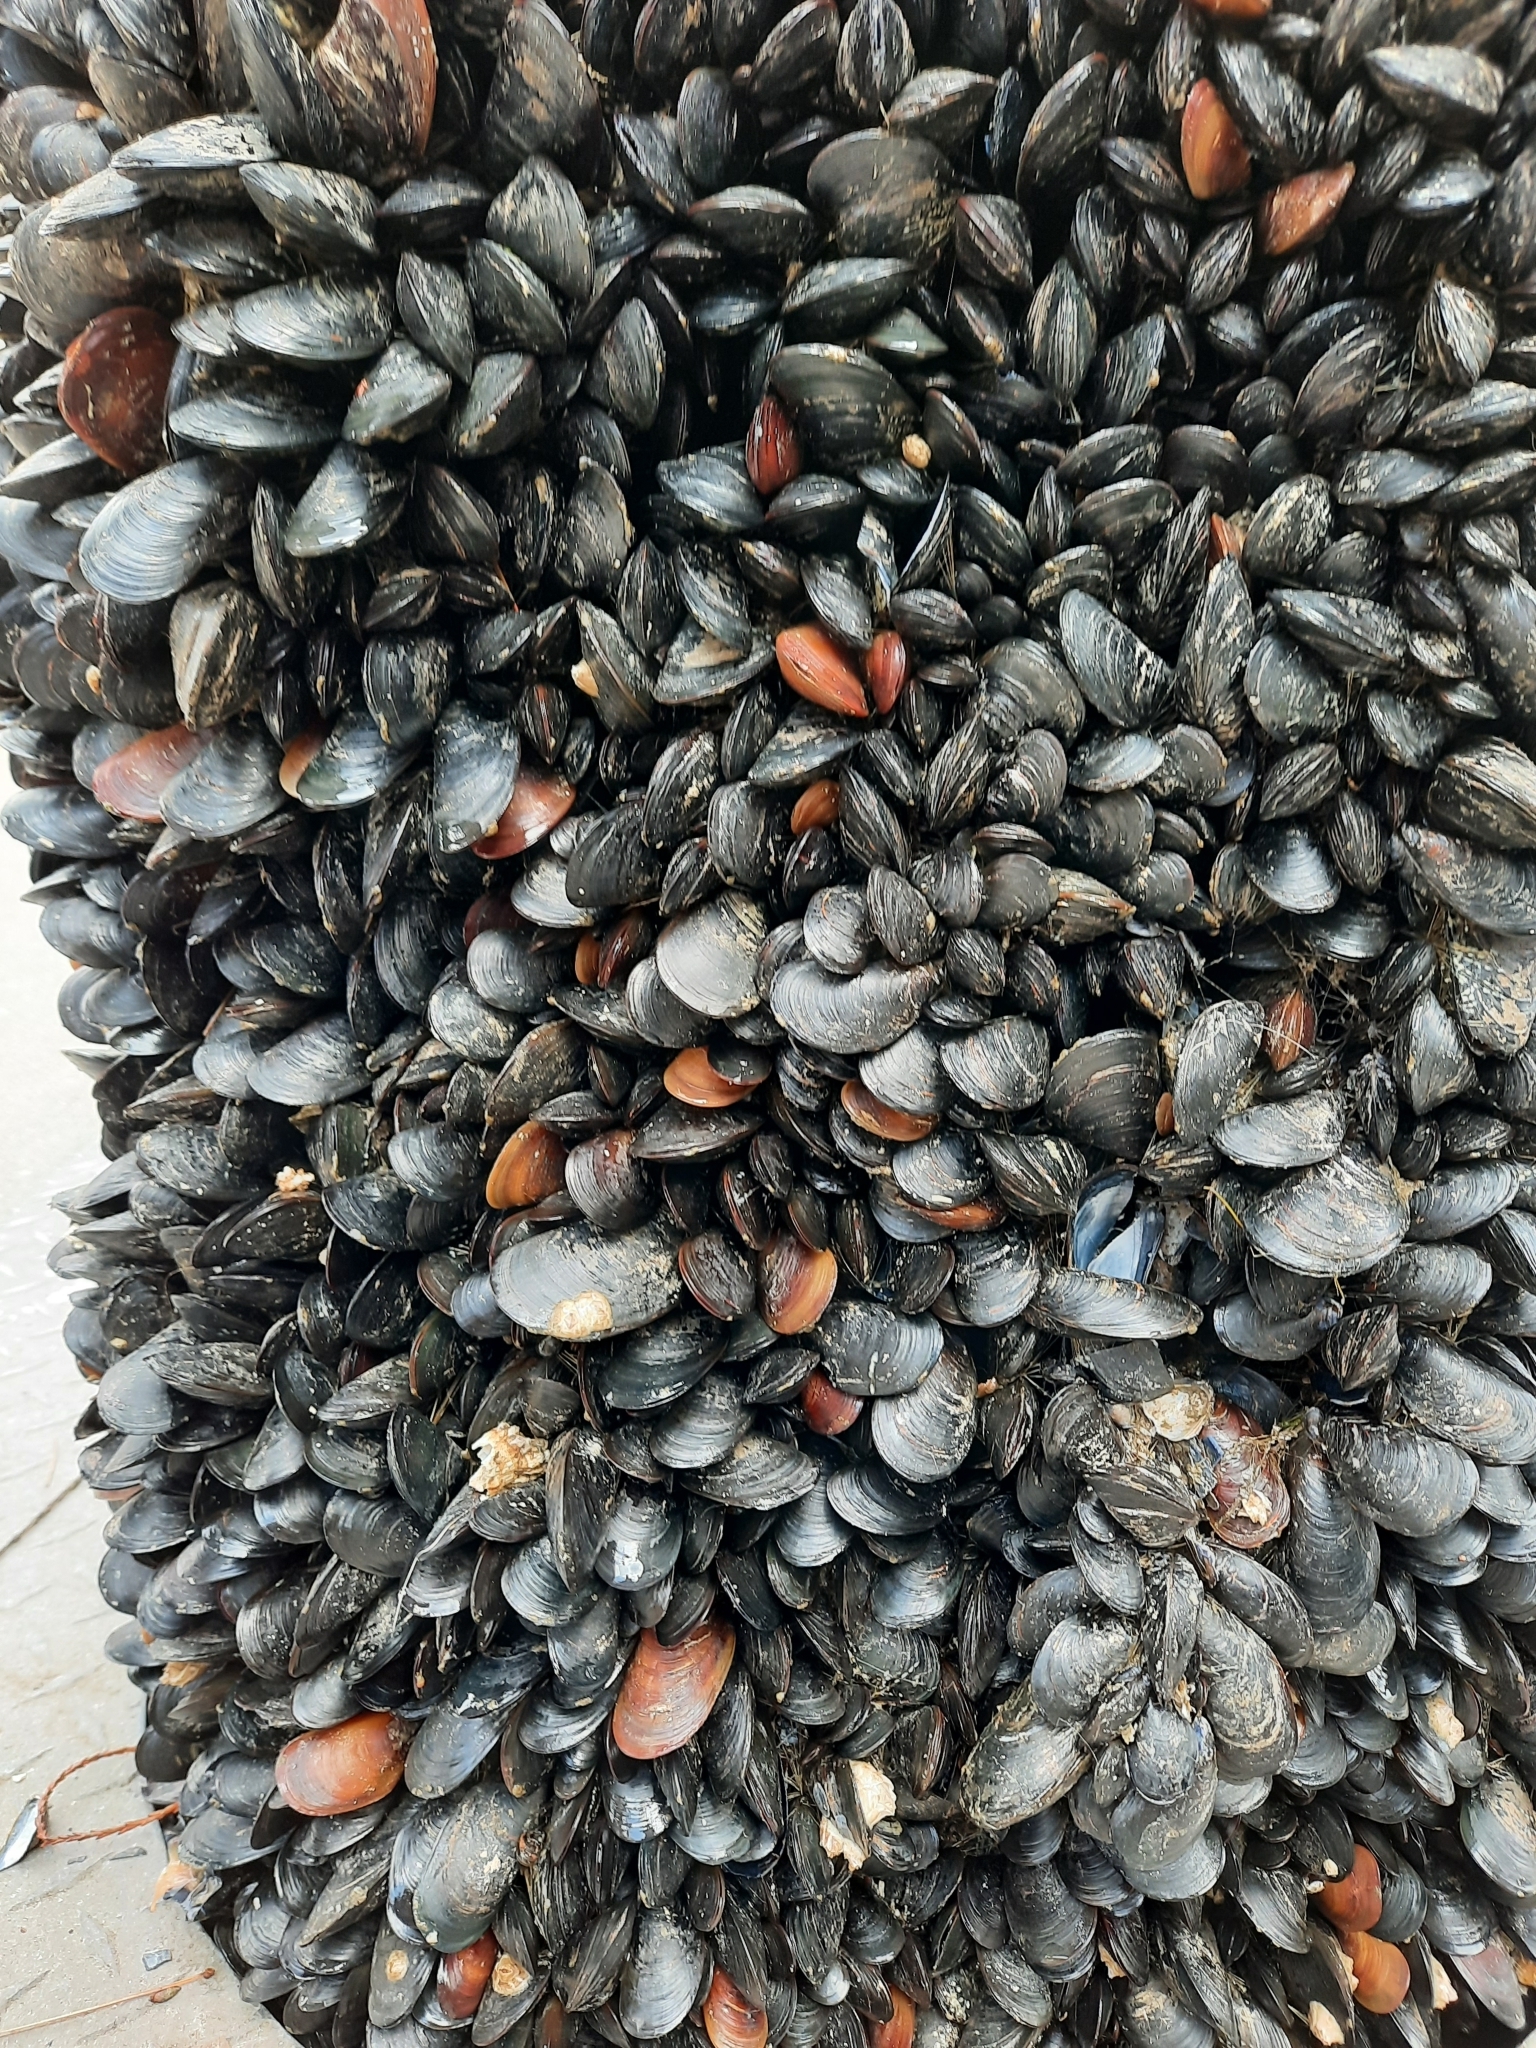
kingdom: Animalia
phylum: Mollusca
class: Bivalvia
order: Mytilida
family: Mytilidae
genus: Mytilus
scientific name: Mytilus
